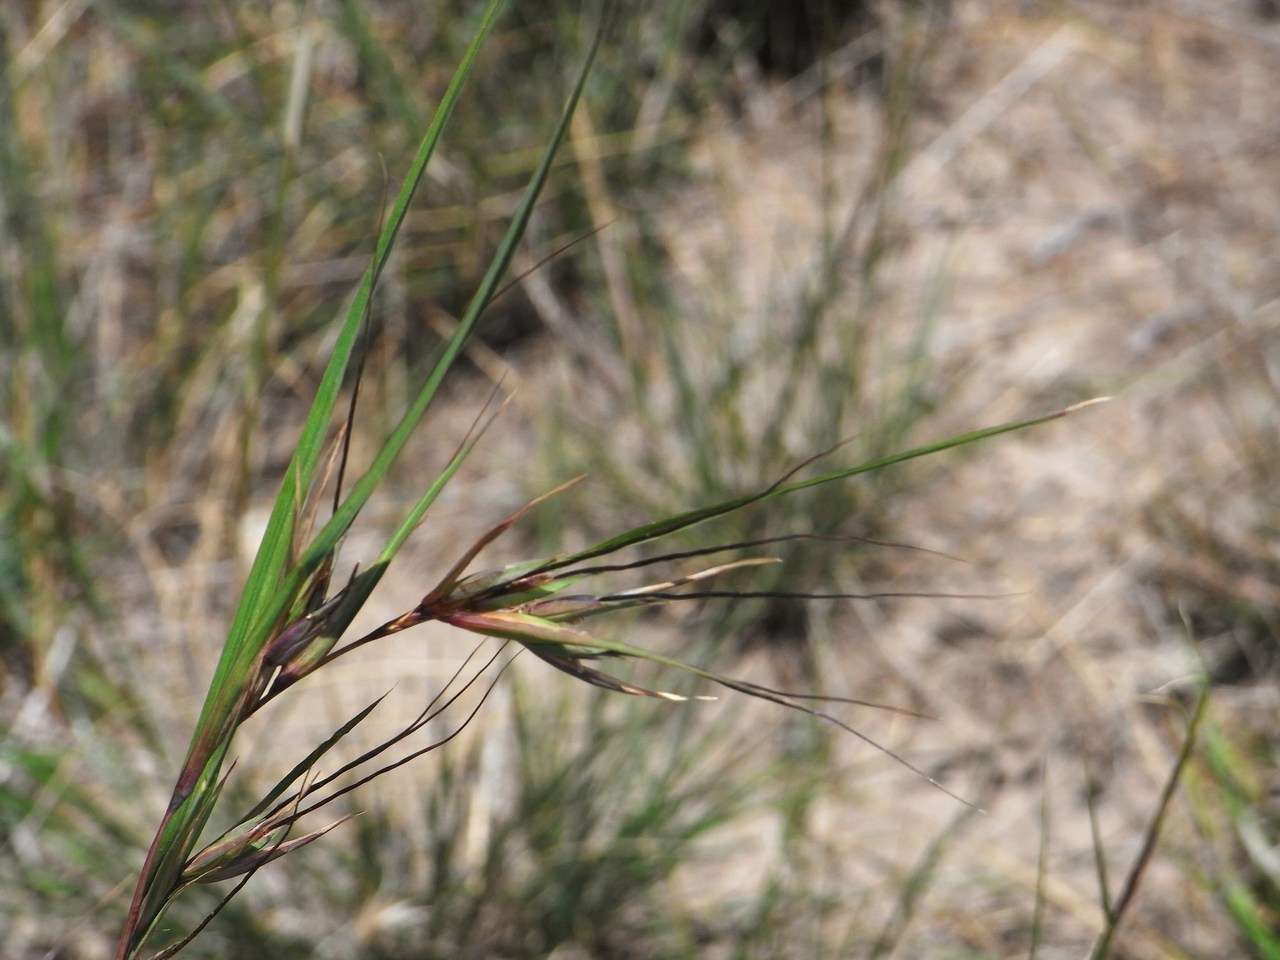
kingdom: Plantae
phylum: Tracheophyta
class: Liliopsida
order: Poales
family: Poaceae
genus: Themeda
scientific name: Themeda triandra
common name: Kangaroo grass
